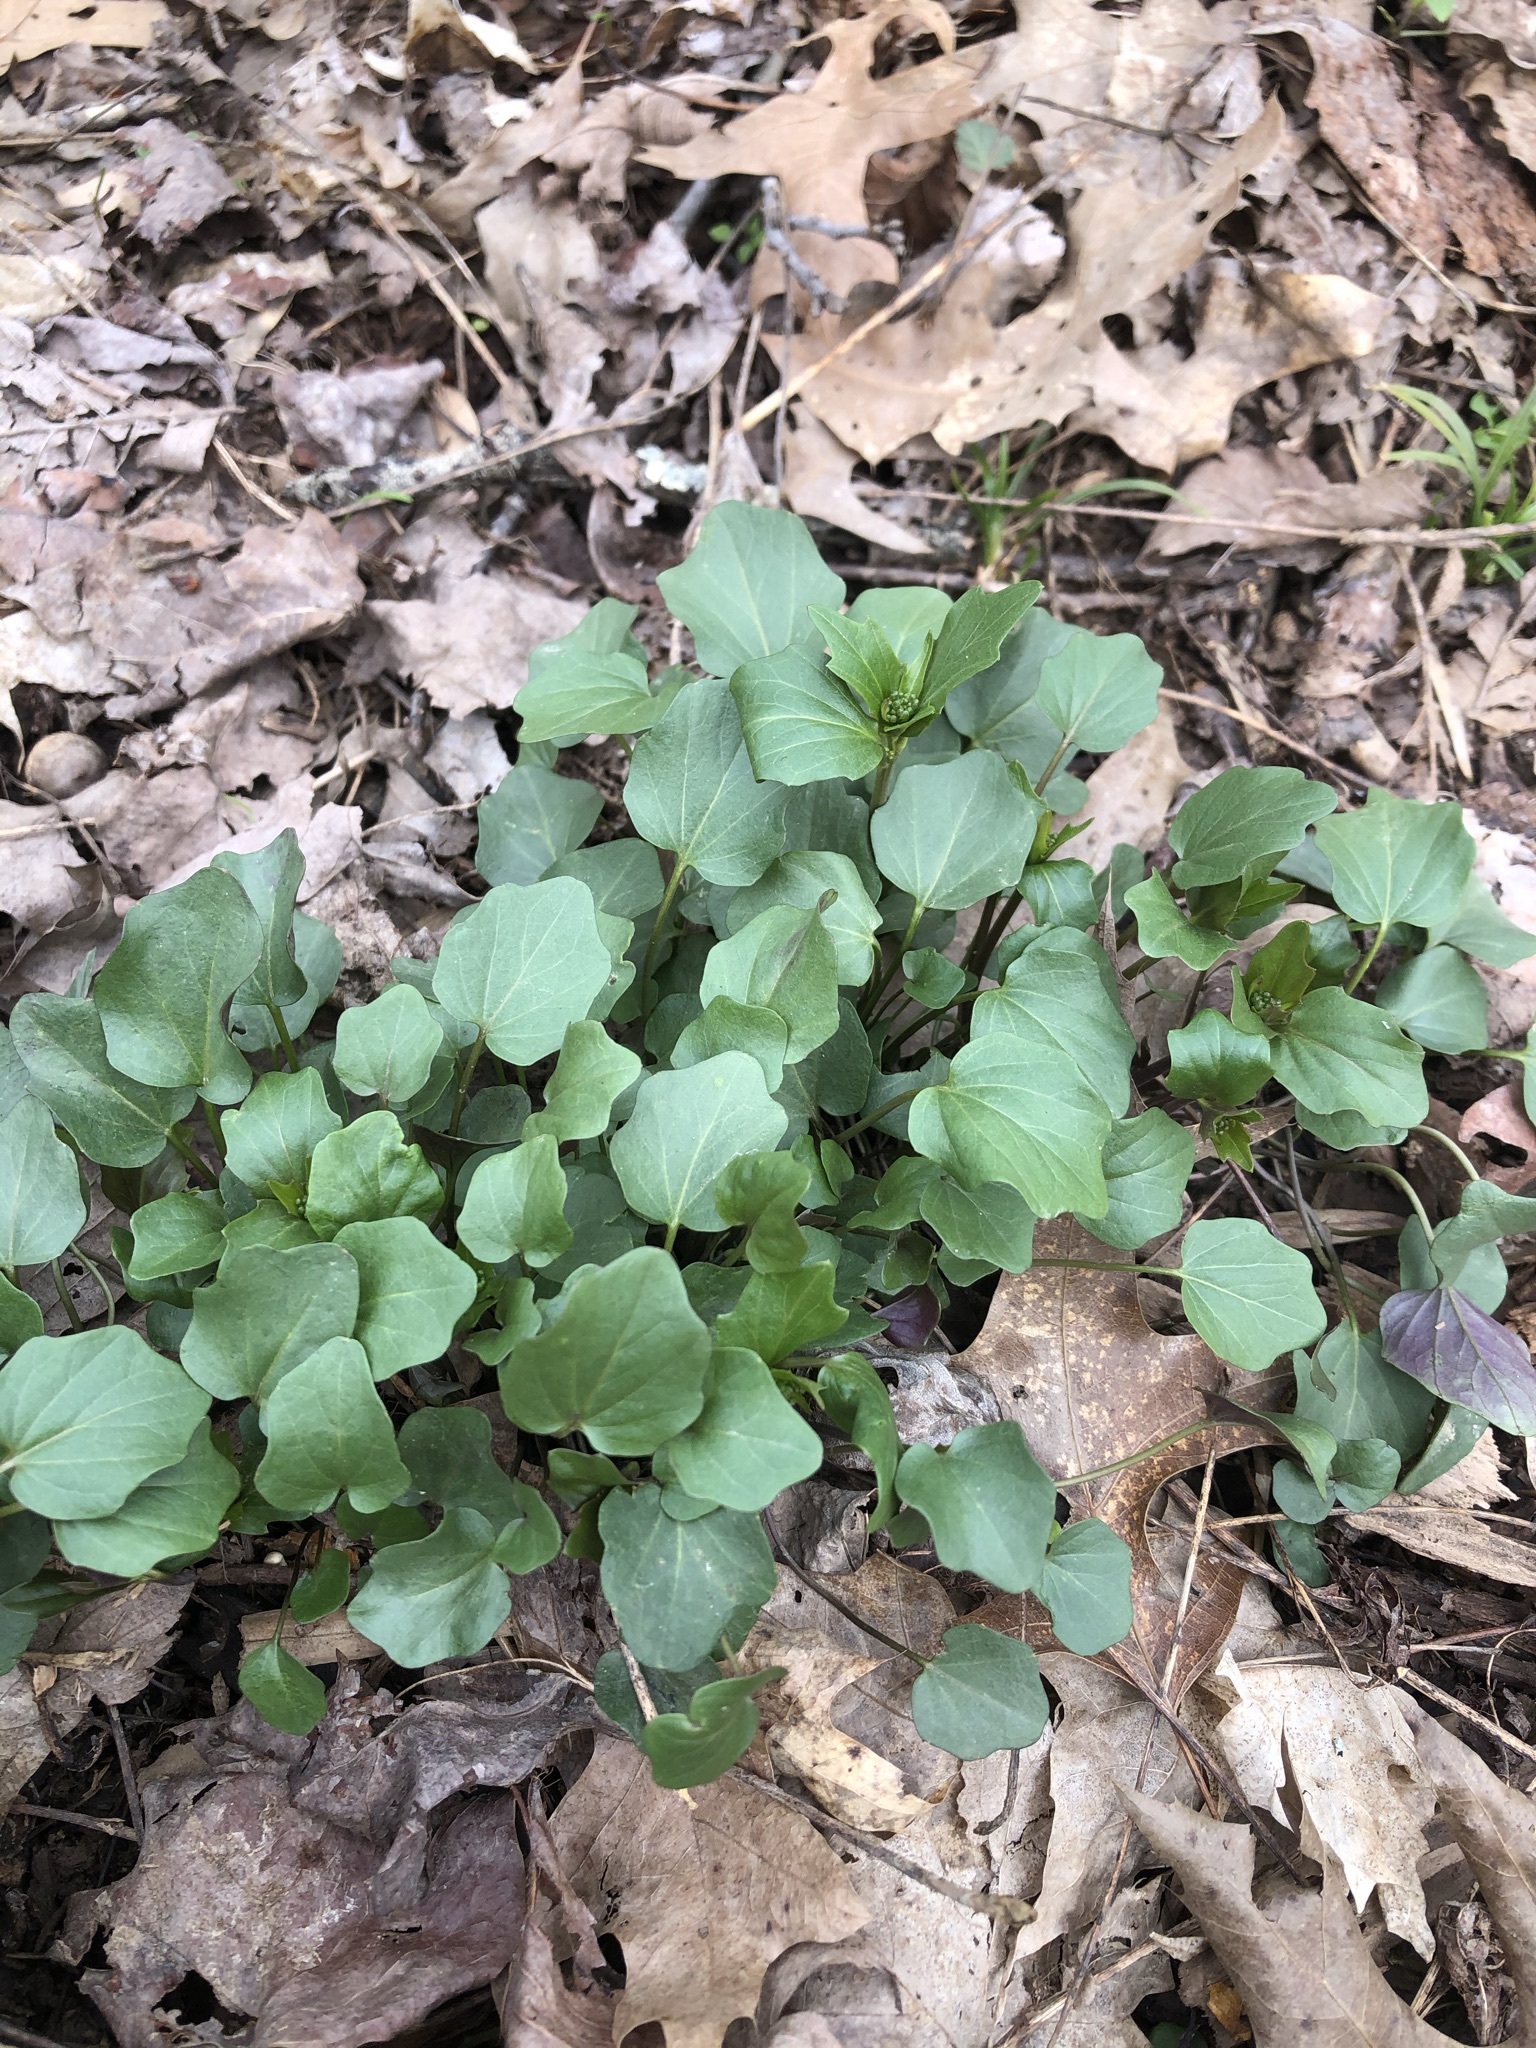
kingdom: Plantae
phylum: Tracheophyta
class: Magnoliopsida
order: Brassicales
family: Brassicaceae
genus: Cardamine
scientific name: Cardamine douglassii
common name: Purple cress
